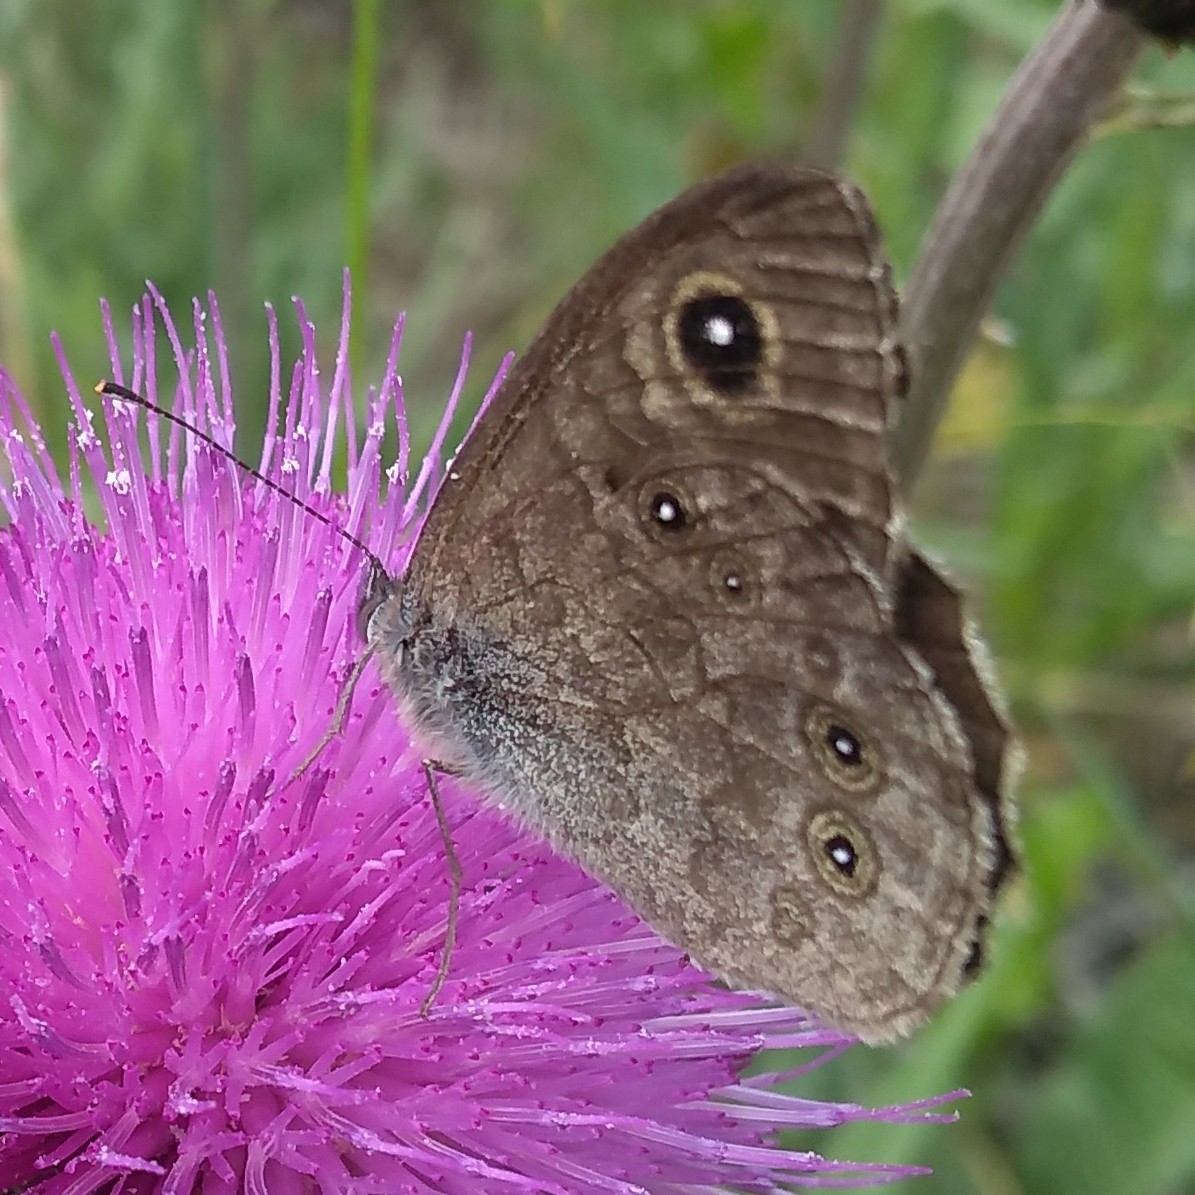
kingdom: Animalia
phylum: Arthropoda
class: Insecta
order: Lepidoptera
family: Nymphalidae
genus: Pararge
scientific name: Pararge Lasiommata maera
